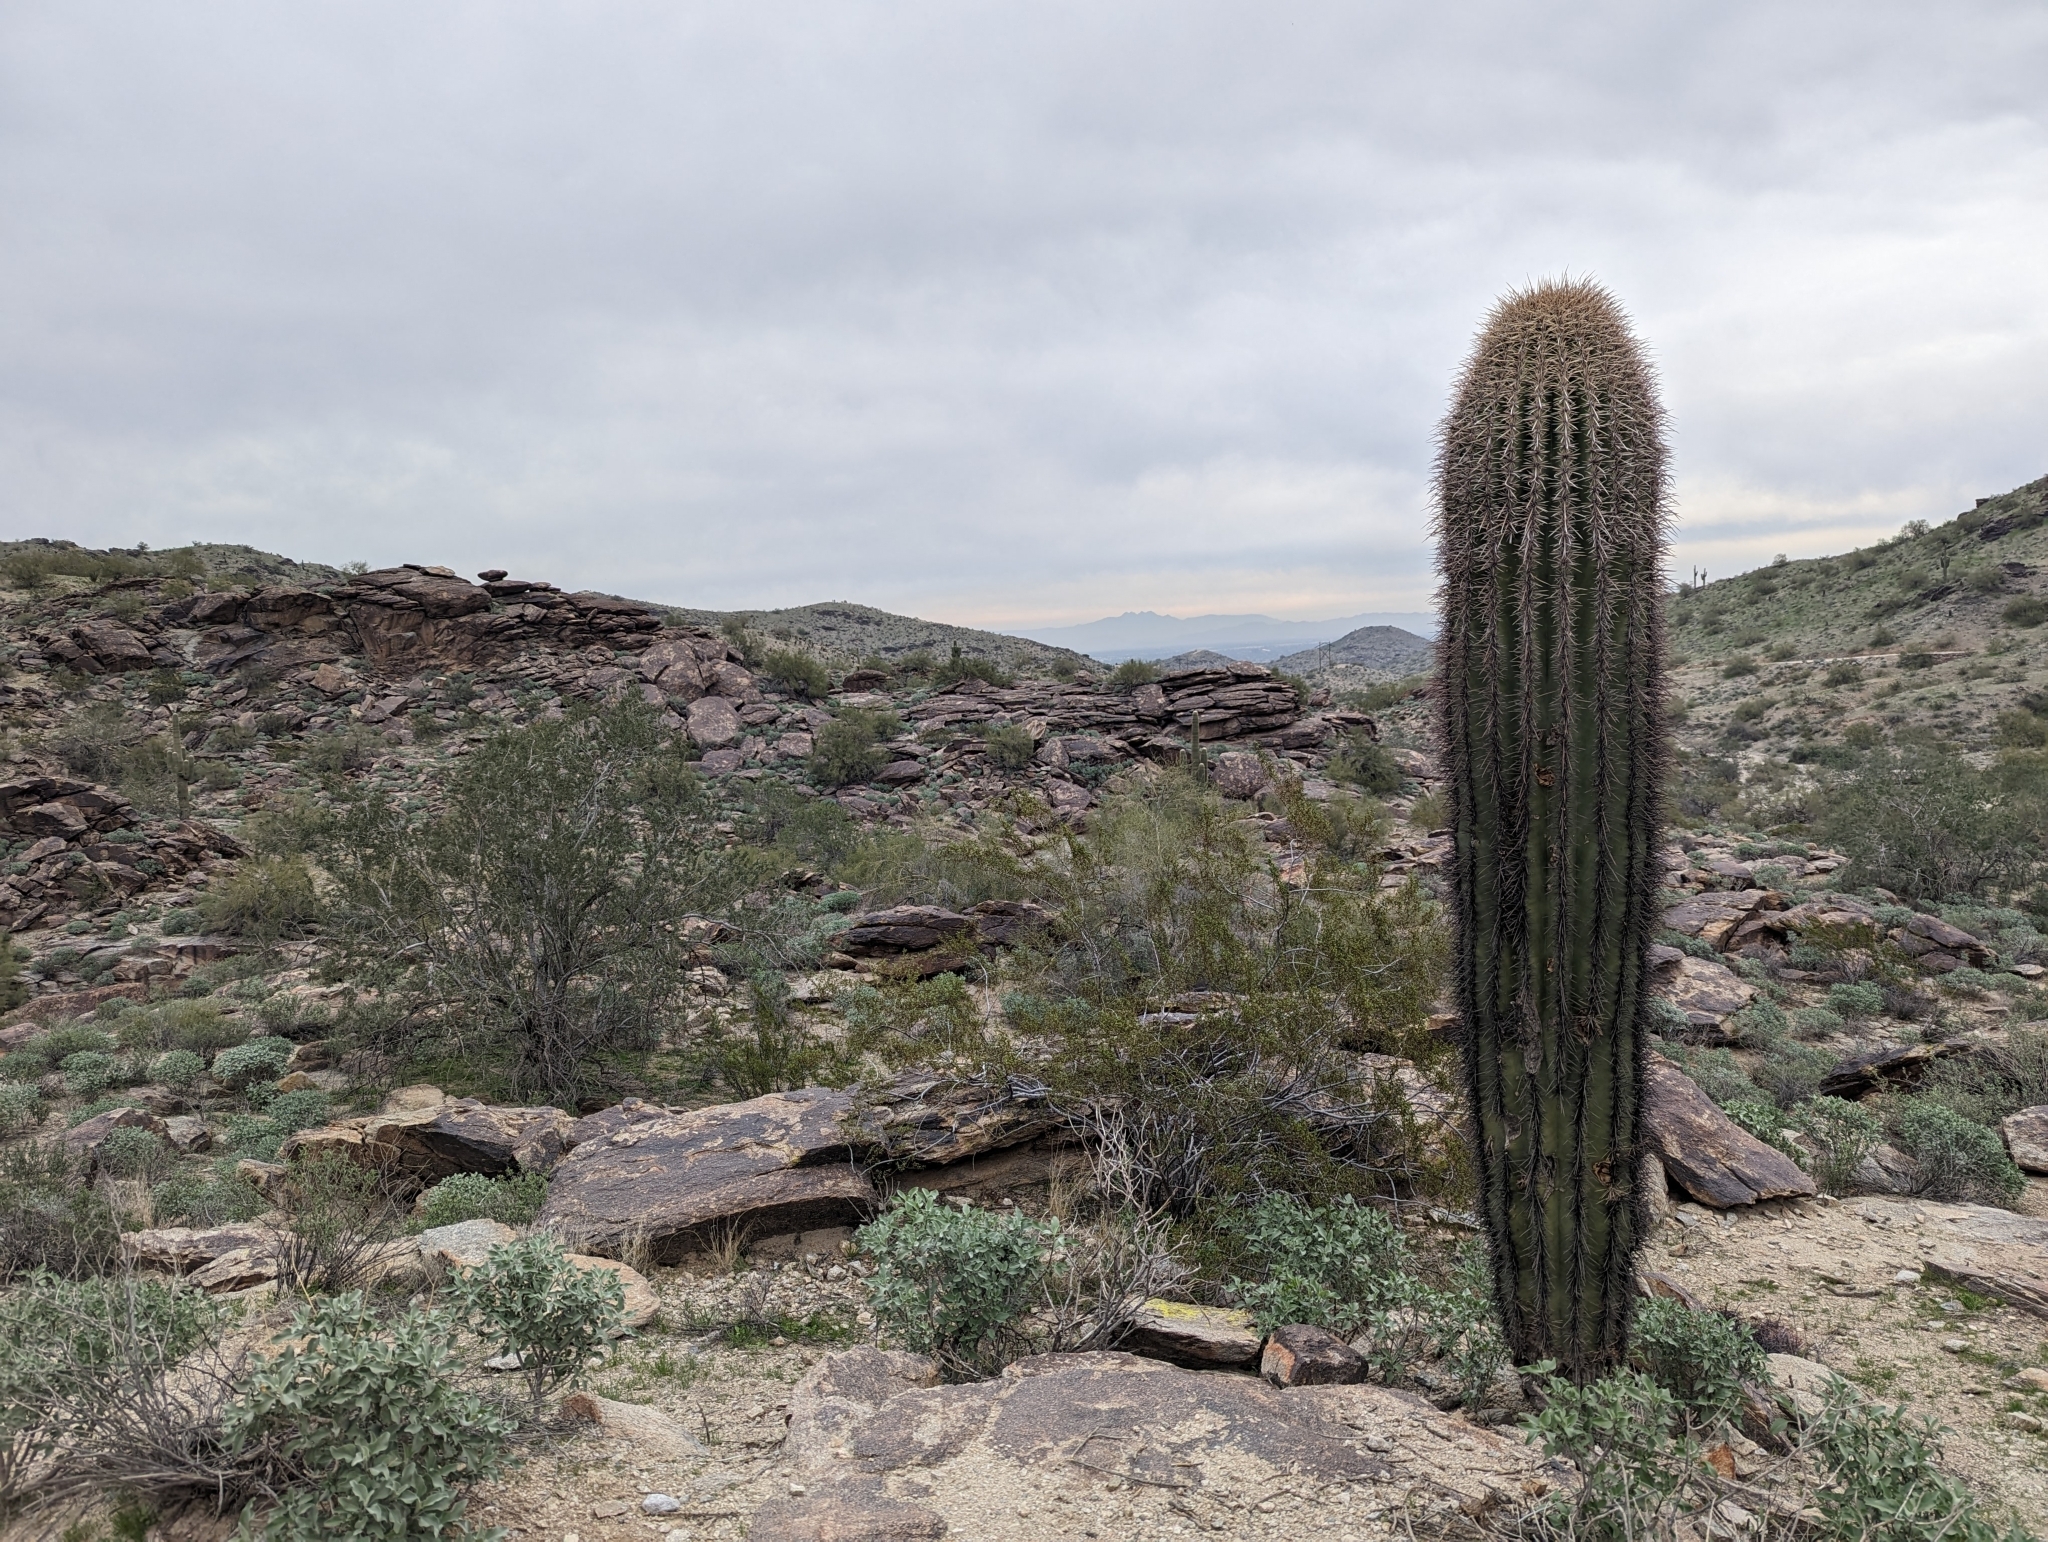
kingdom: Plantae
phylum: Tracheophyta
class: Magnoliopsida
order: Caryophyllales
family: Cactaceae
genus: Carnegiea
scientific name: Carnegiea gigantea
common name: Saguaro
